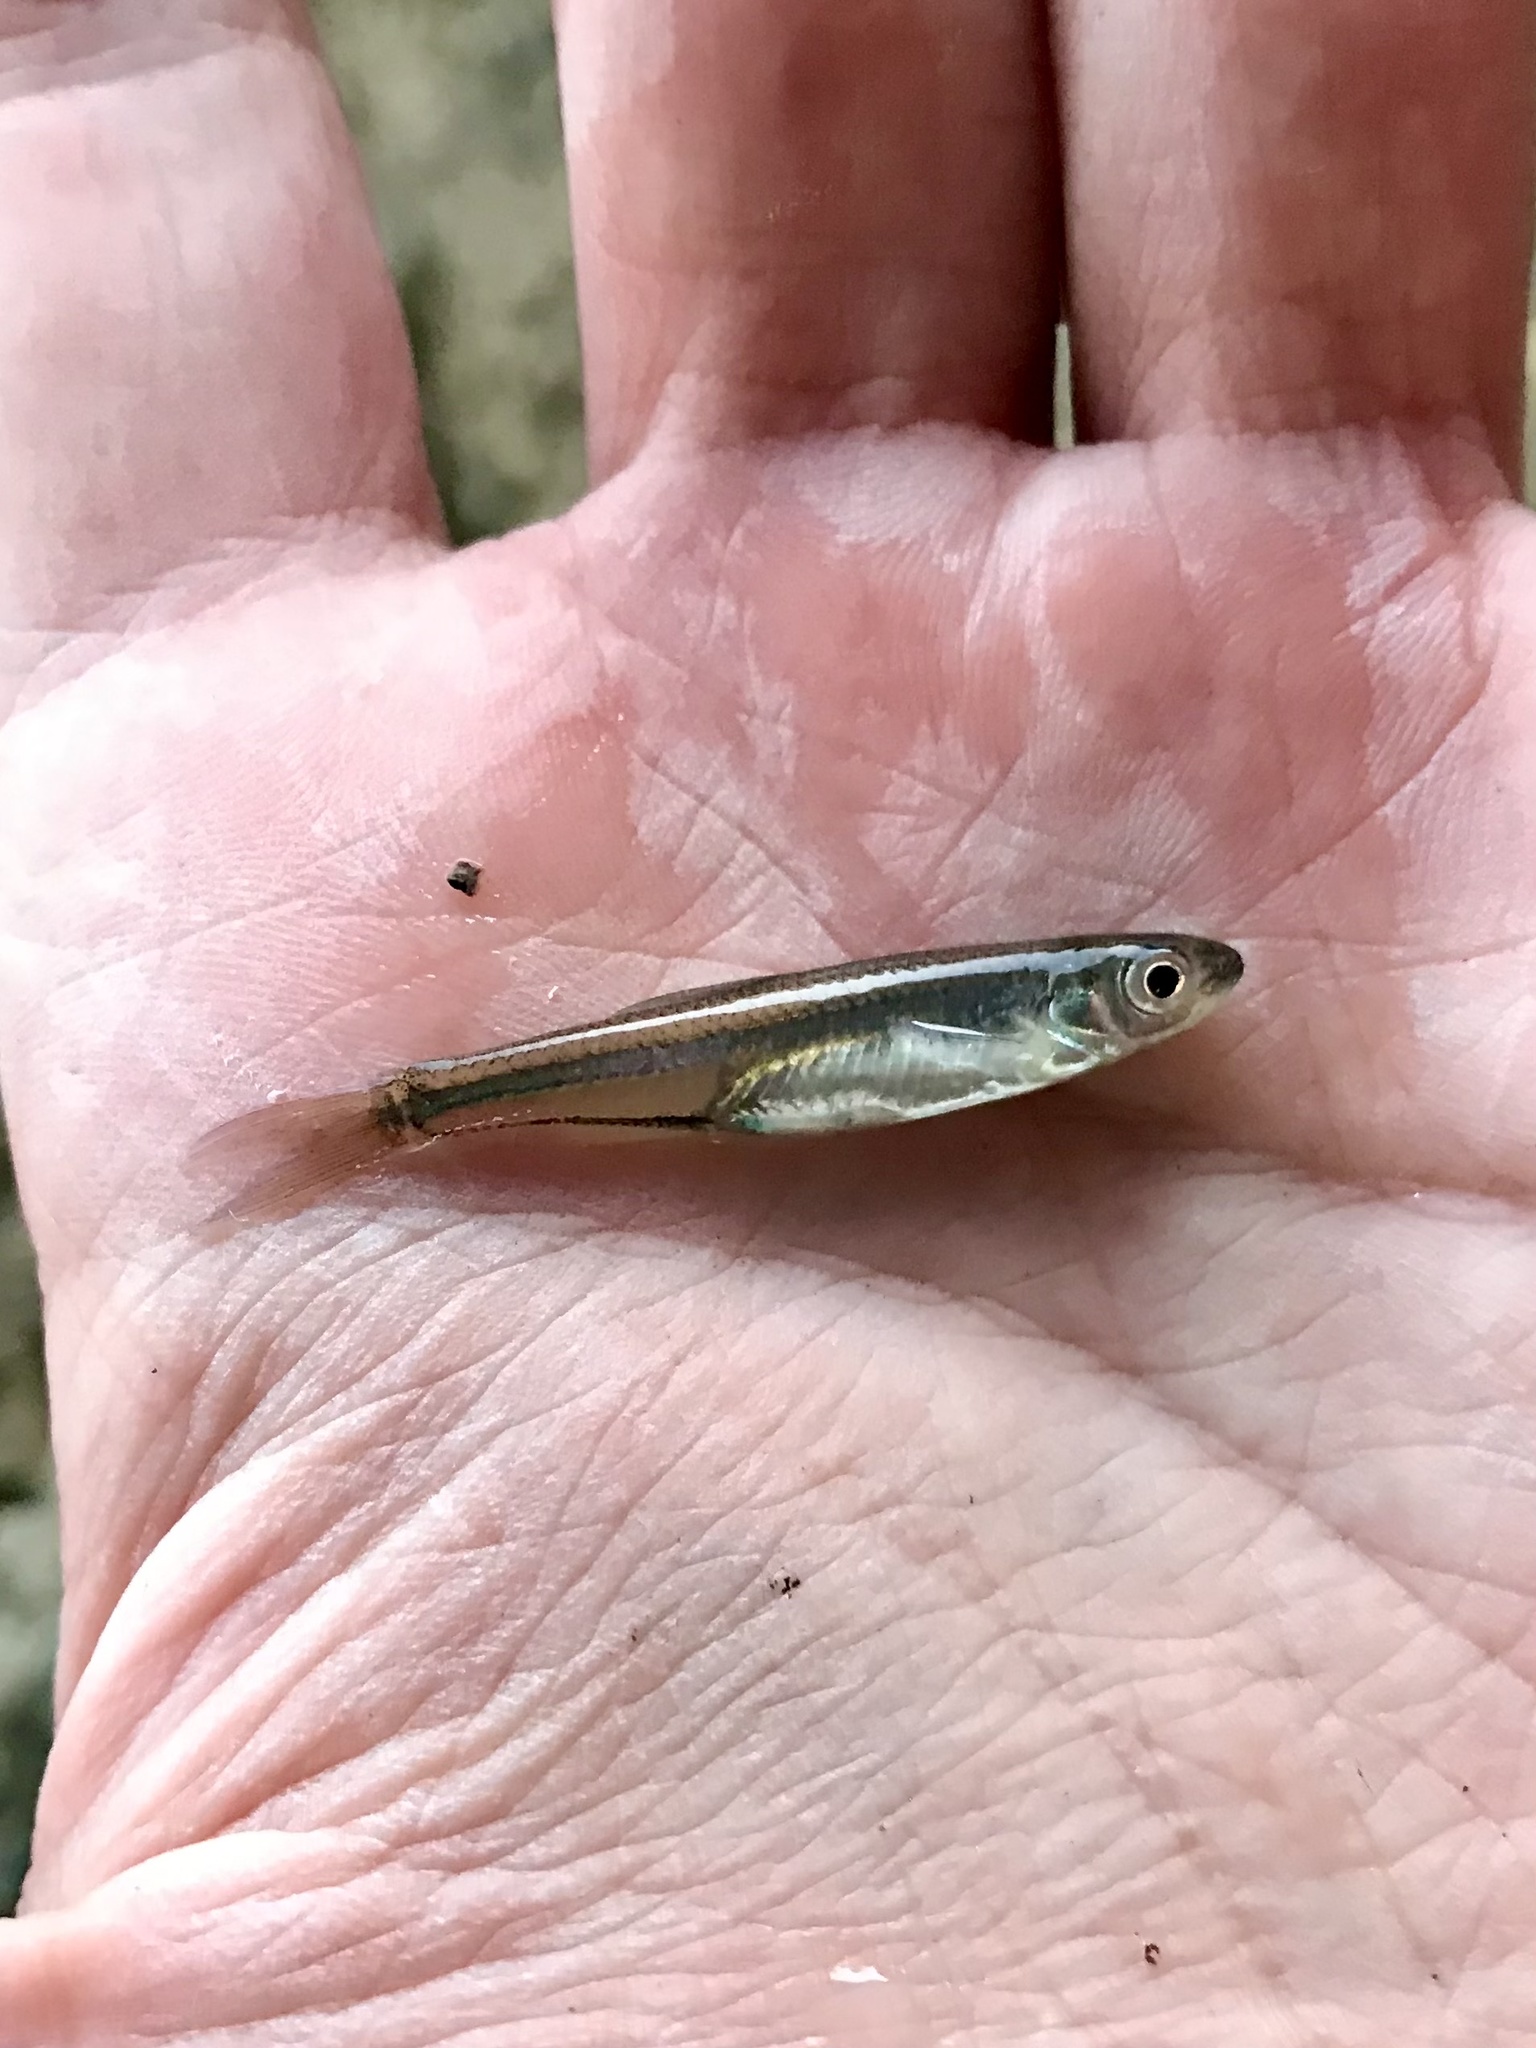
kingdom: Animalia
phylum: Chordata
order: Cypriniformes
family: Cyprinidae
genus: Notropis
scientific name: Notropis atherinoides
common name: Emerald shiner
